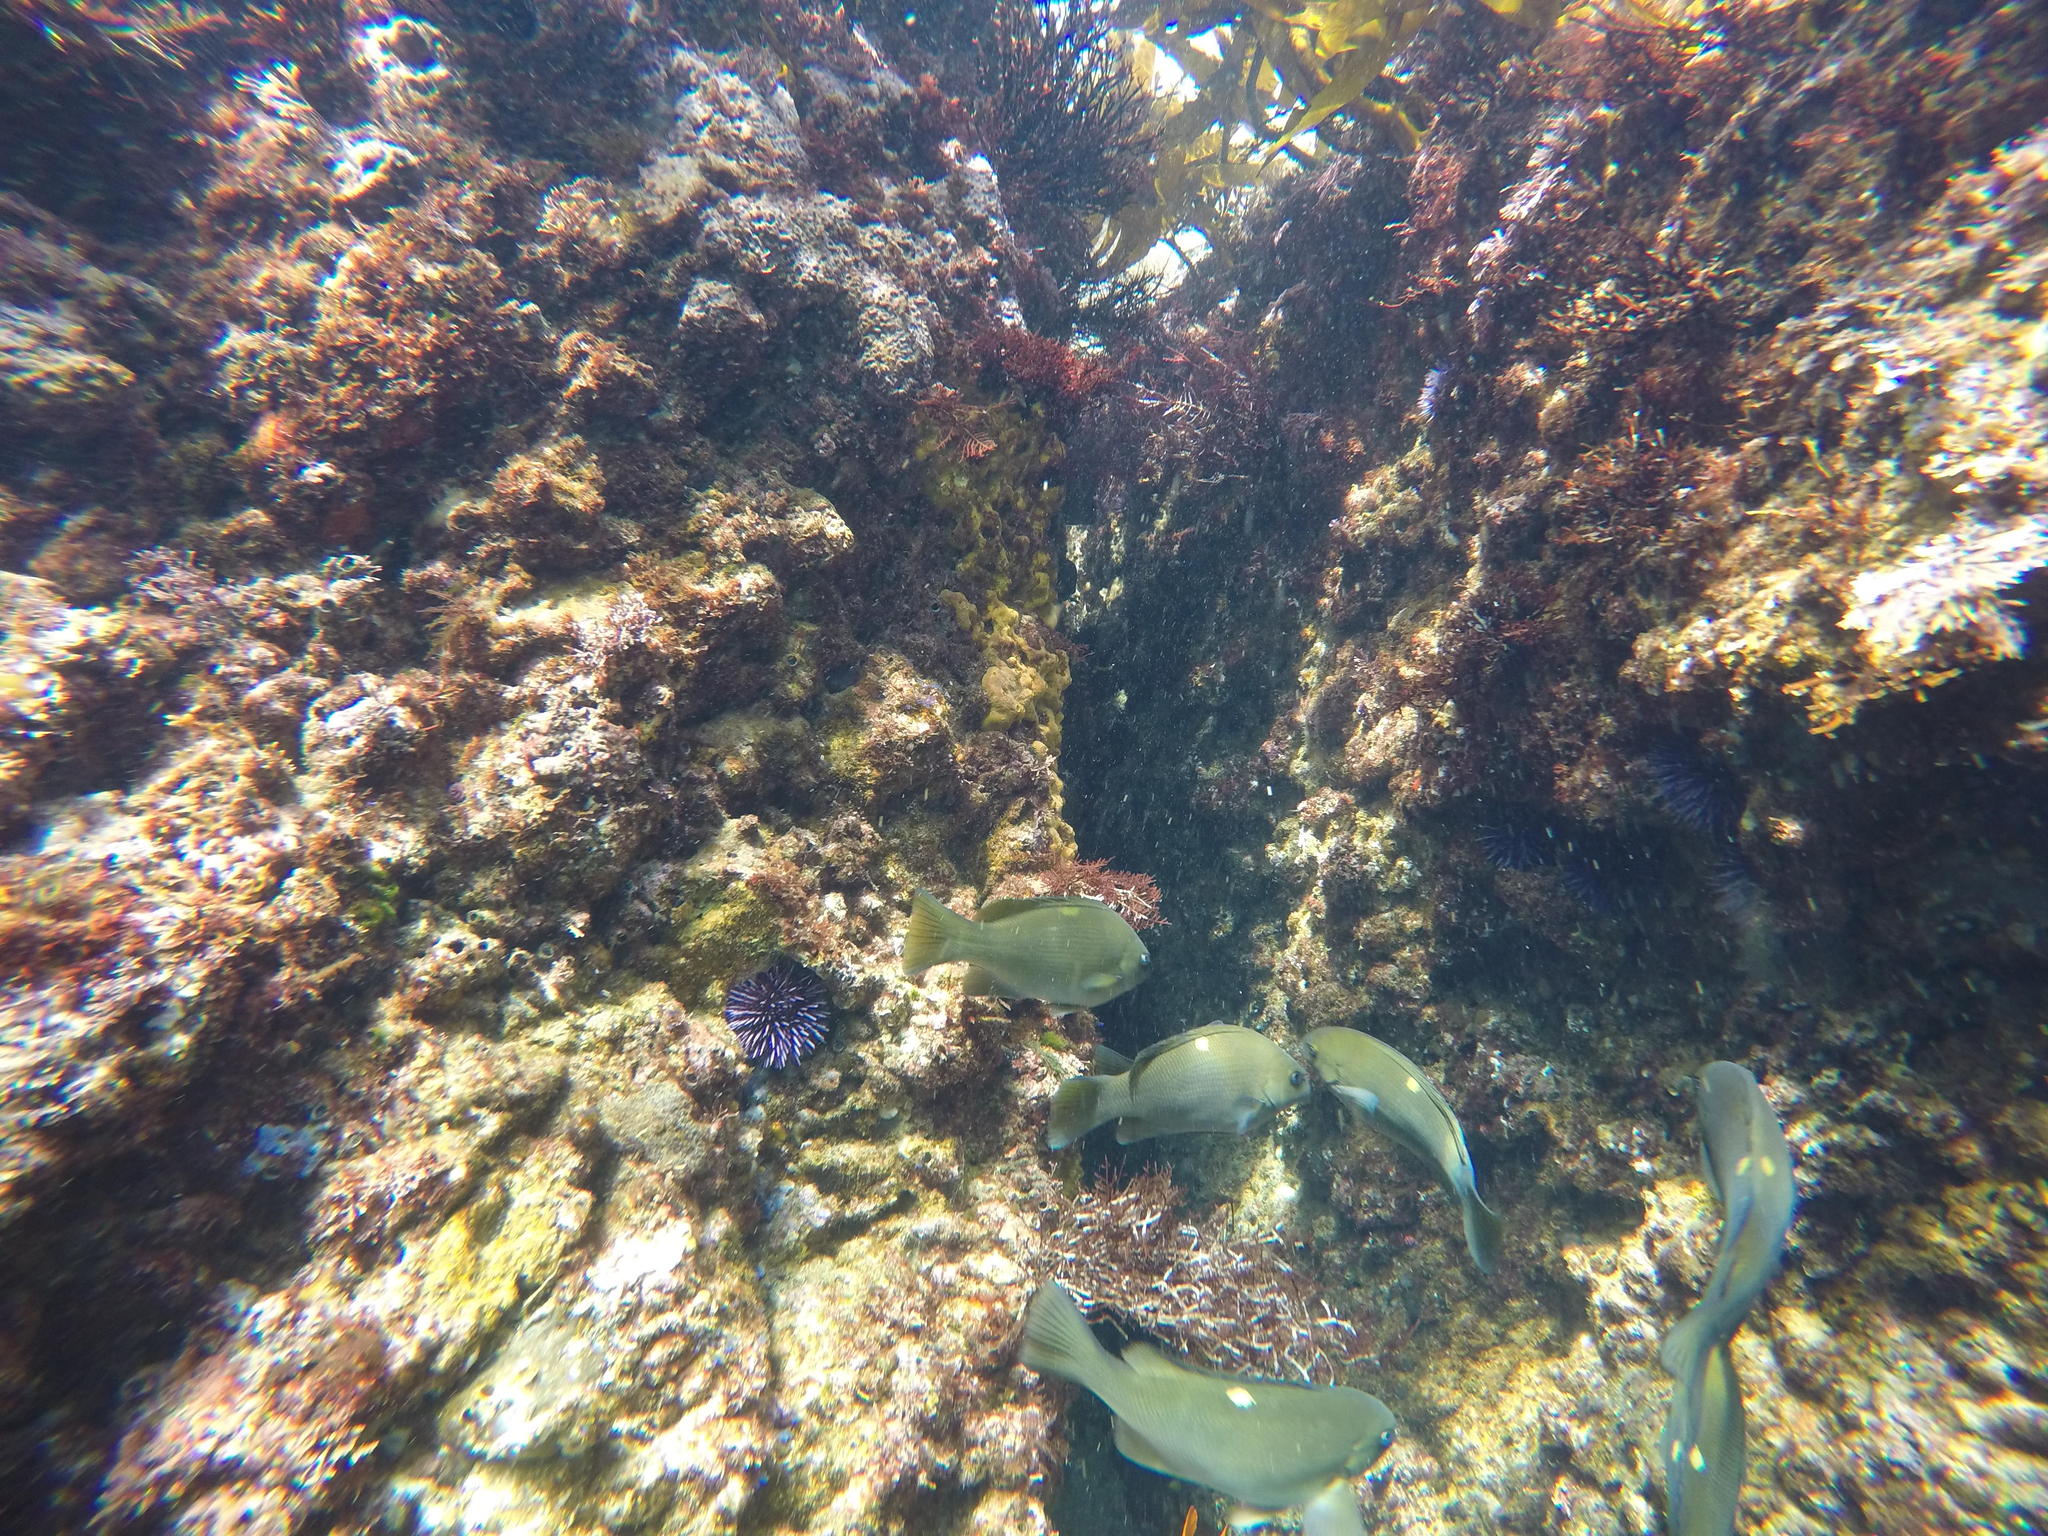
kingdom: Animalia
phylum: Echinodermata
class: Echinoidea
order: Camarodonta
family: Strongylocentrotidae
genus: Strongylocentrotus
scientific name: Strongylocentrotus purpuratus
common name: Purple sea urchin
